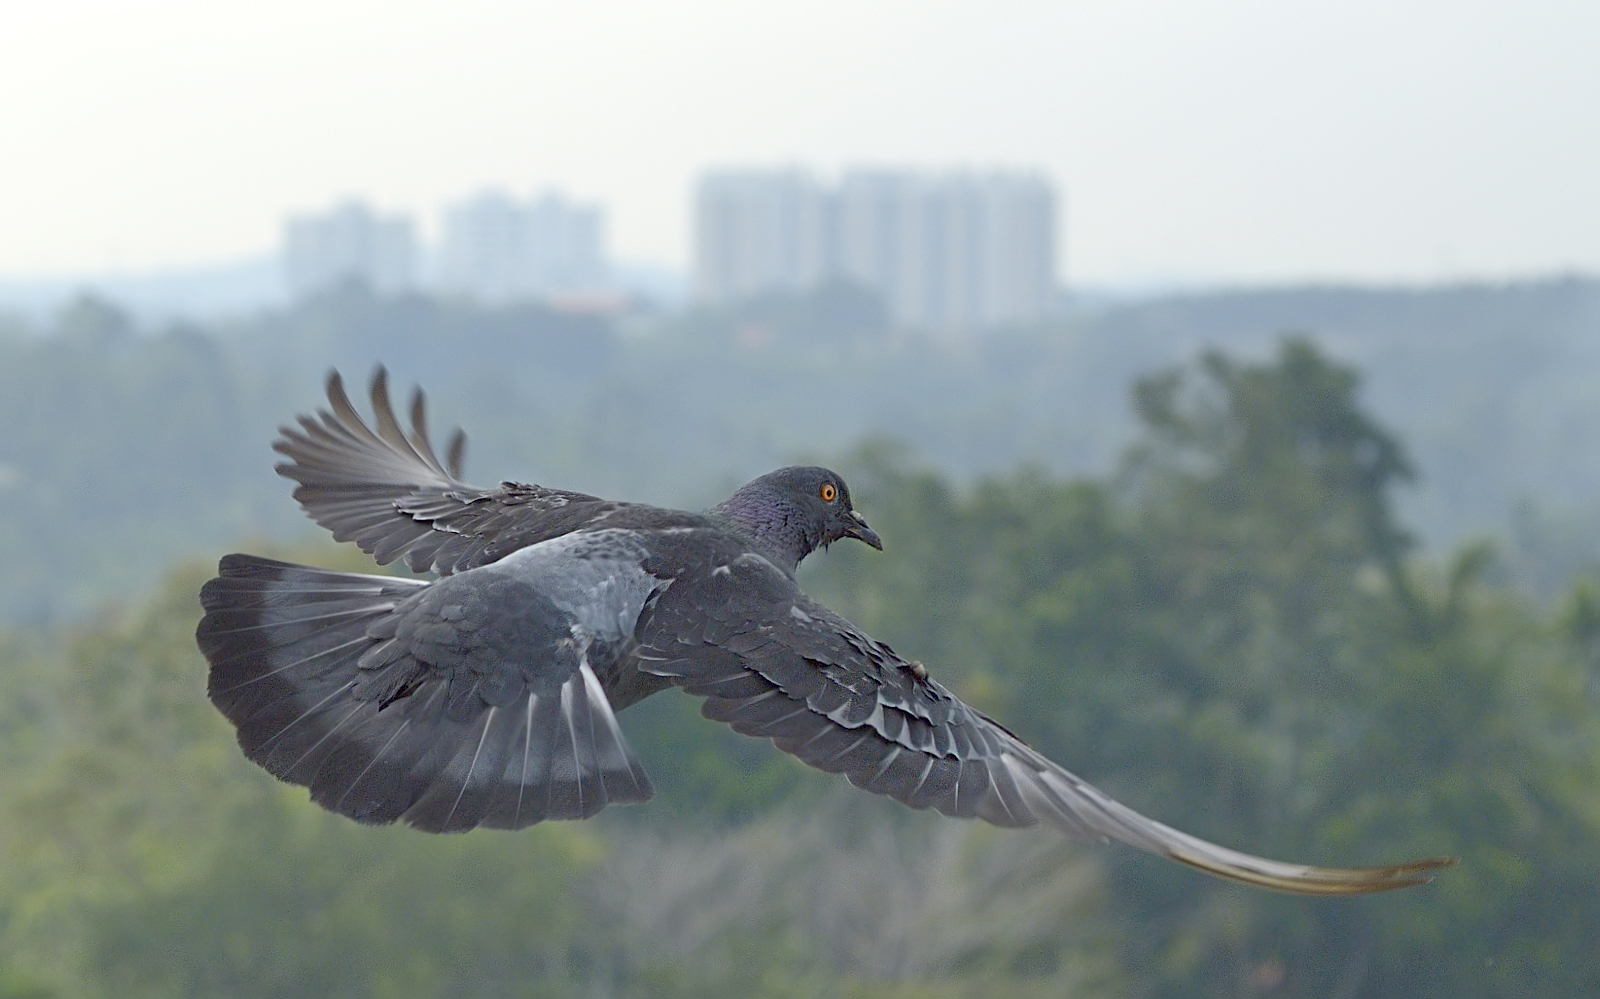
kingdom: Animalia
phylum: Chordata
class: Aves
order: Columbiformes
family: Columbidae
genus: Columba
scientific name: Columba livia
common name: Rock pigeon
